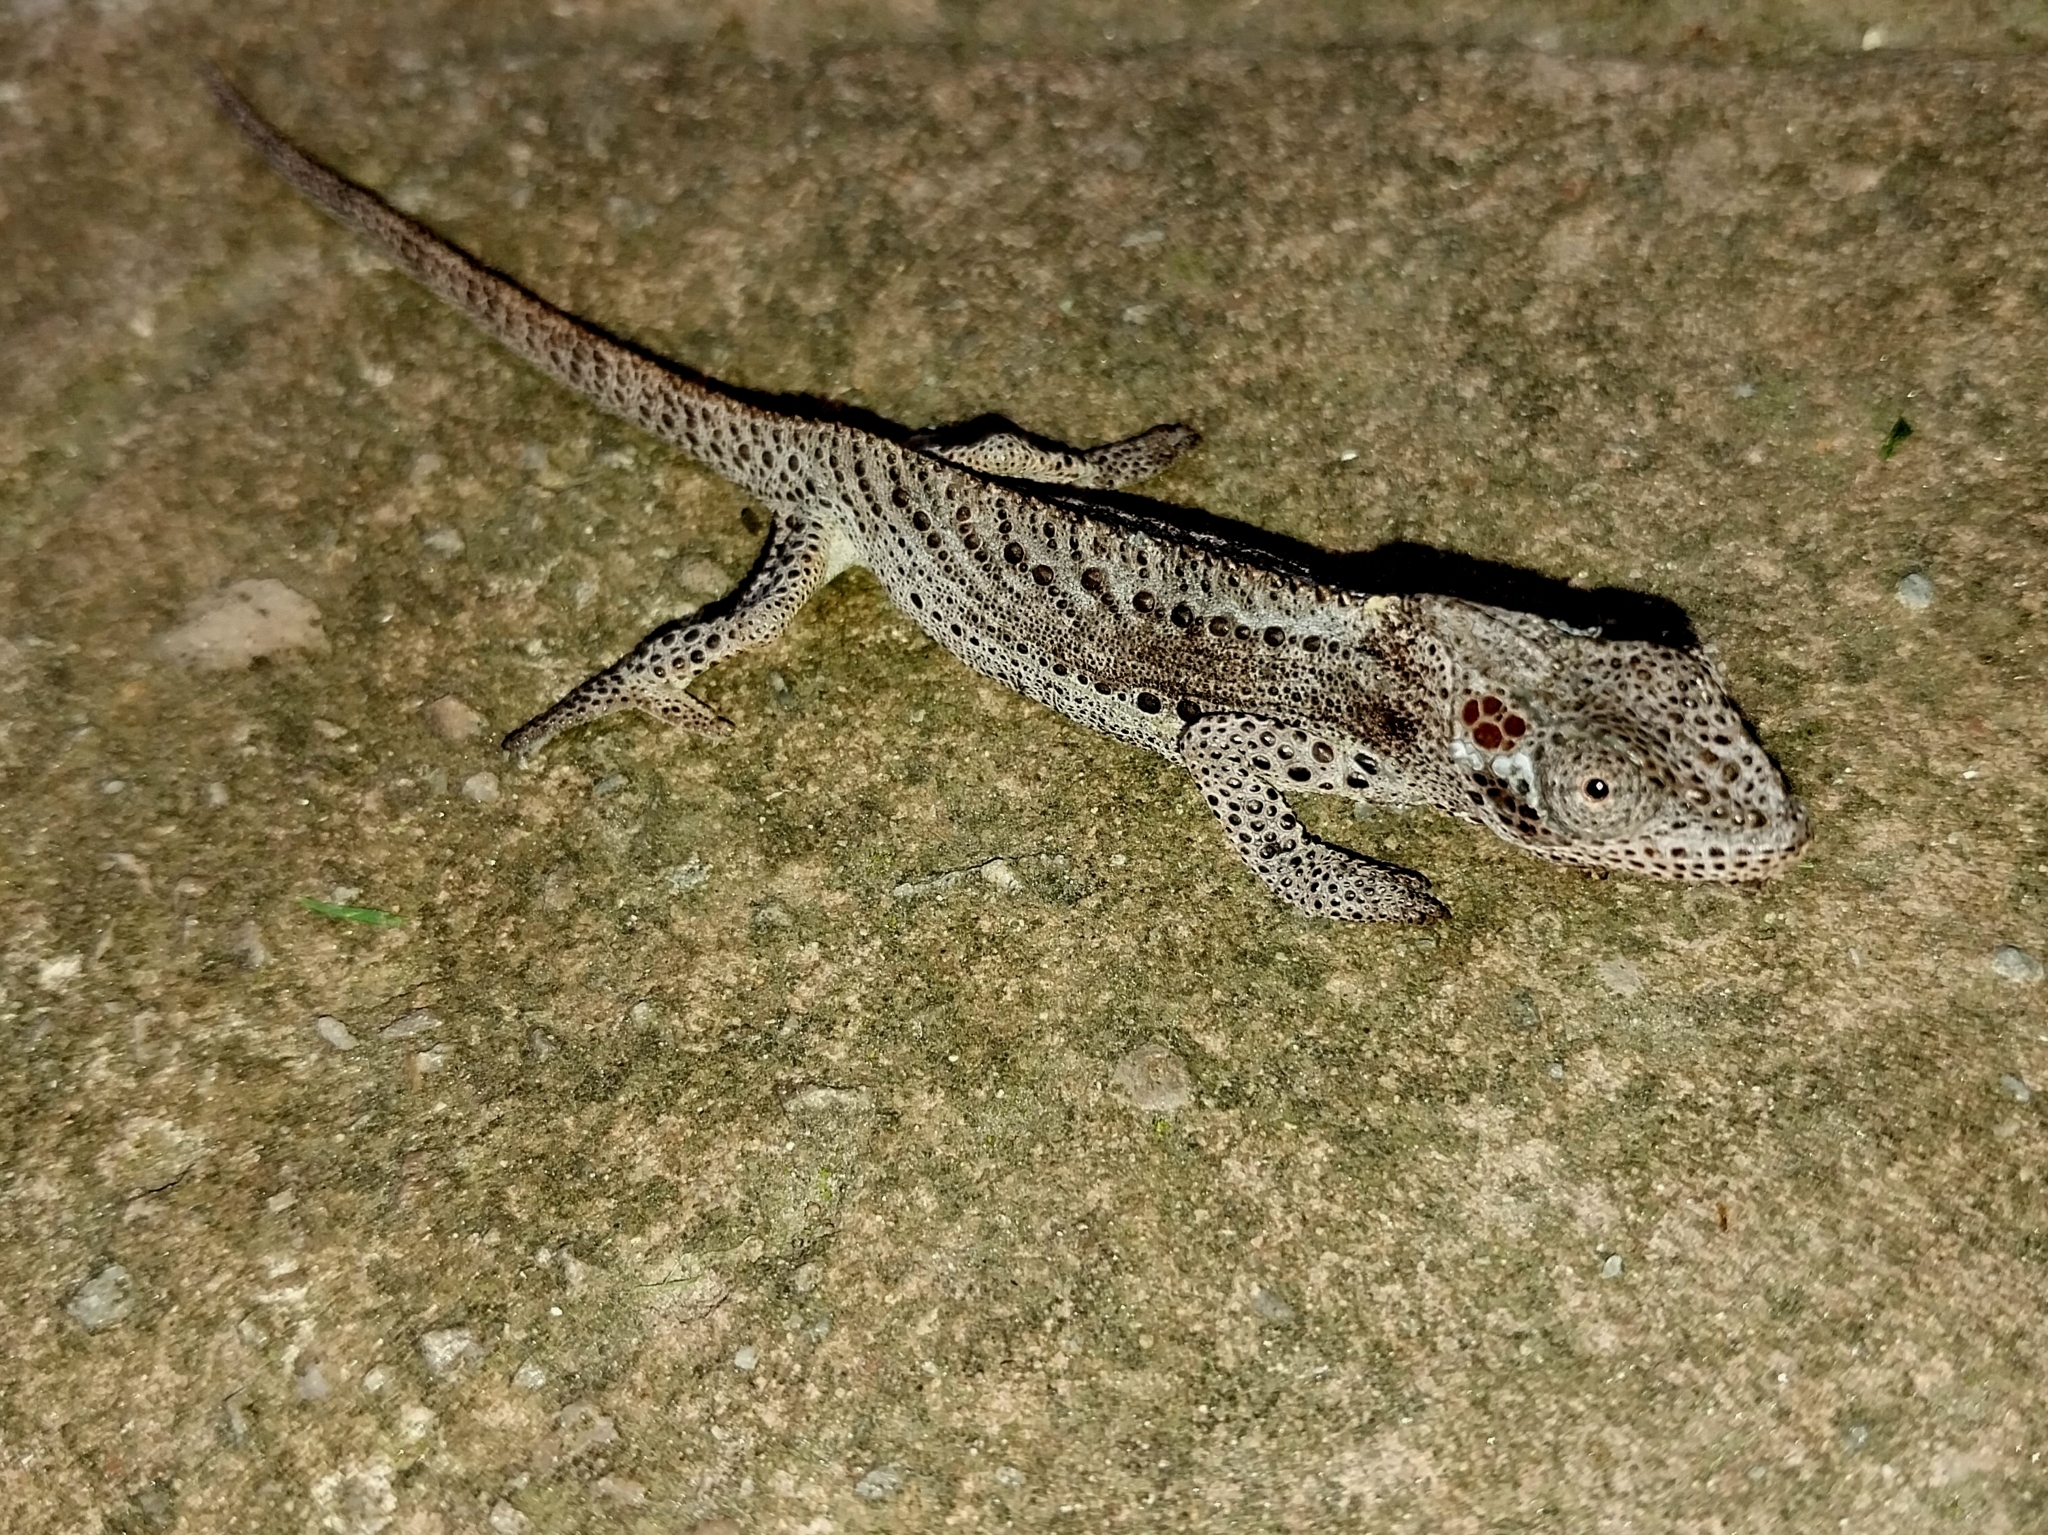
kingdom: Animalia
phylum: Chordata
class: Squamata
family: Chamaeleonidae
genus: Bradypodion
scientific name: Bradypodion damaranum
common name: Knysna dwarf chameleon
